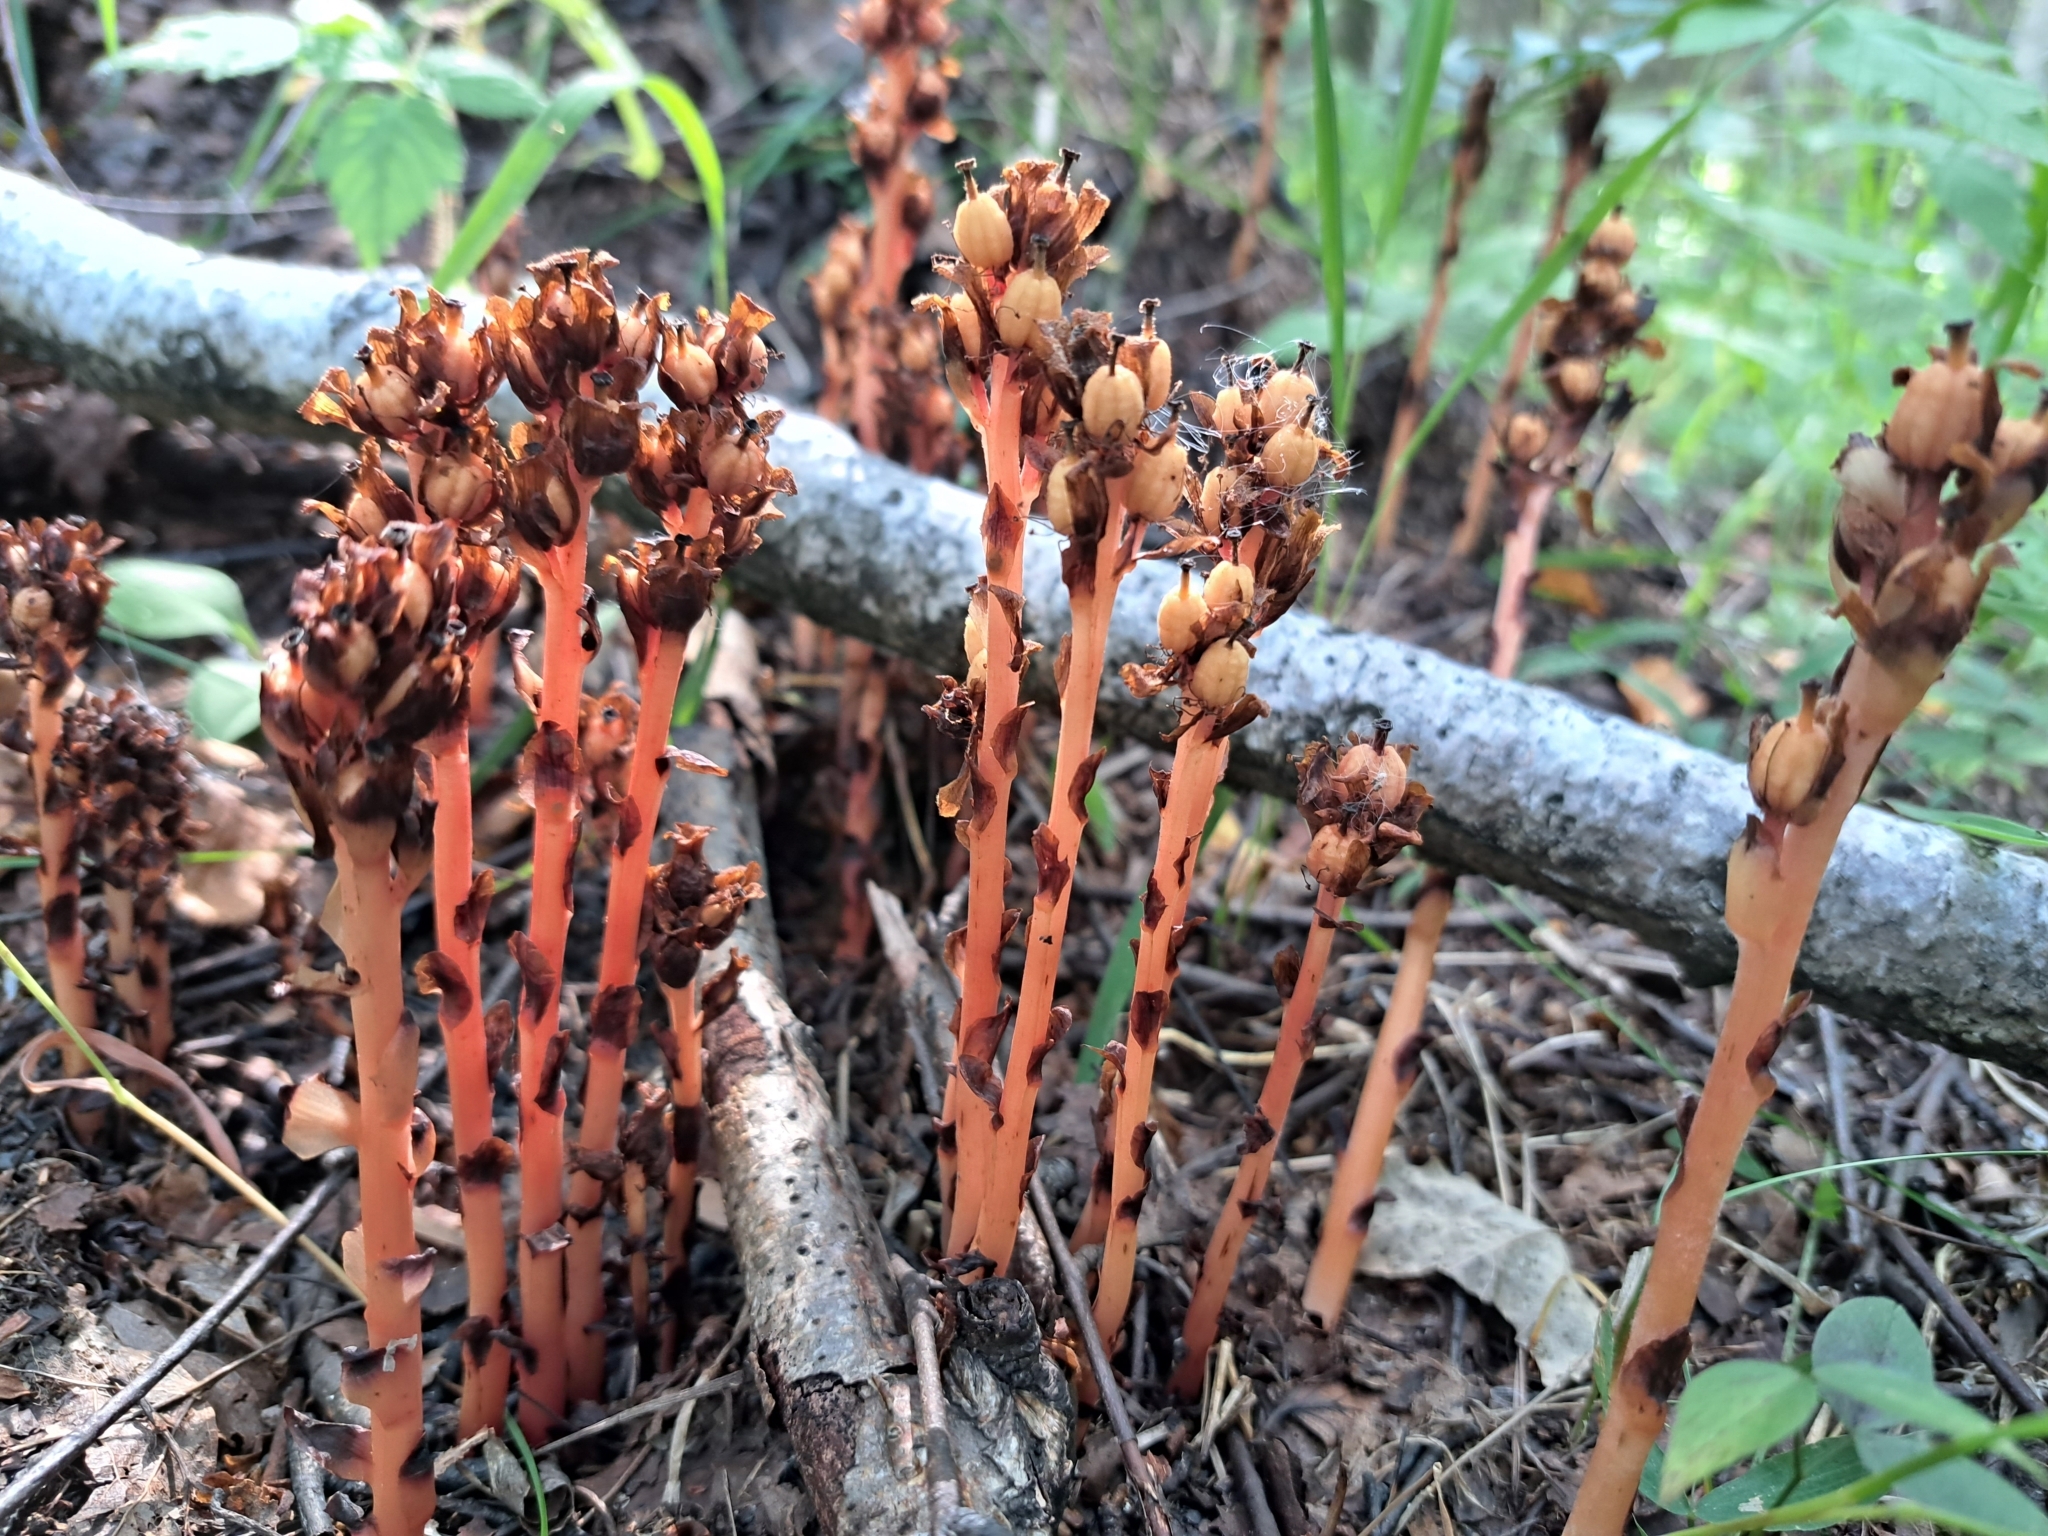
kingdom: Plantae
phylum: Tracheophyta
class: Magnoliopsida
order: Ericales
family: Ericaceae
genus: Hypopitys
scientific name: Hypopitys monotropa
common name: Yellow bird's-nest
